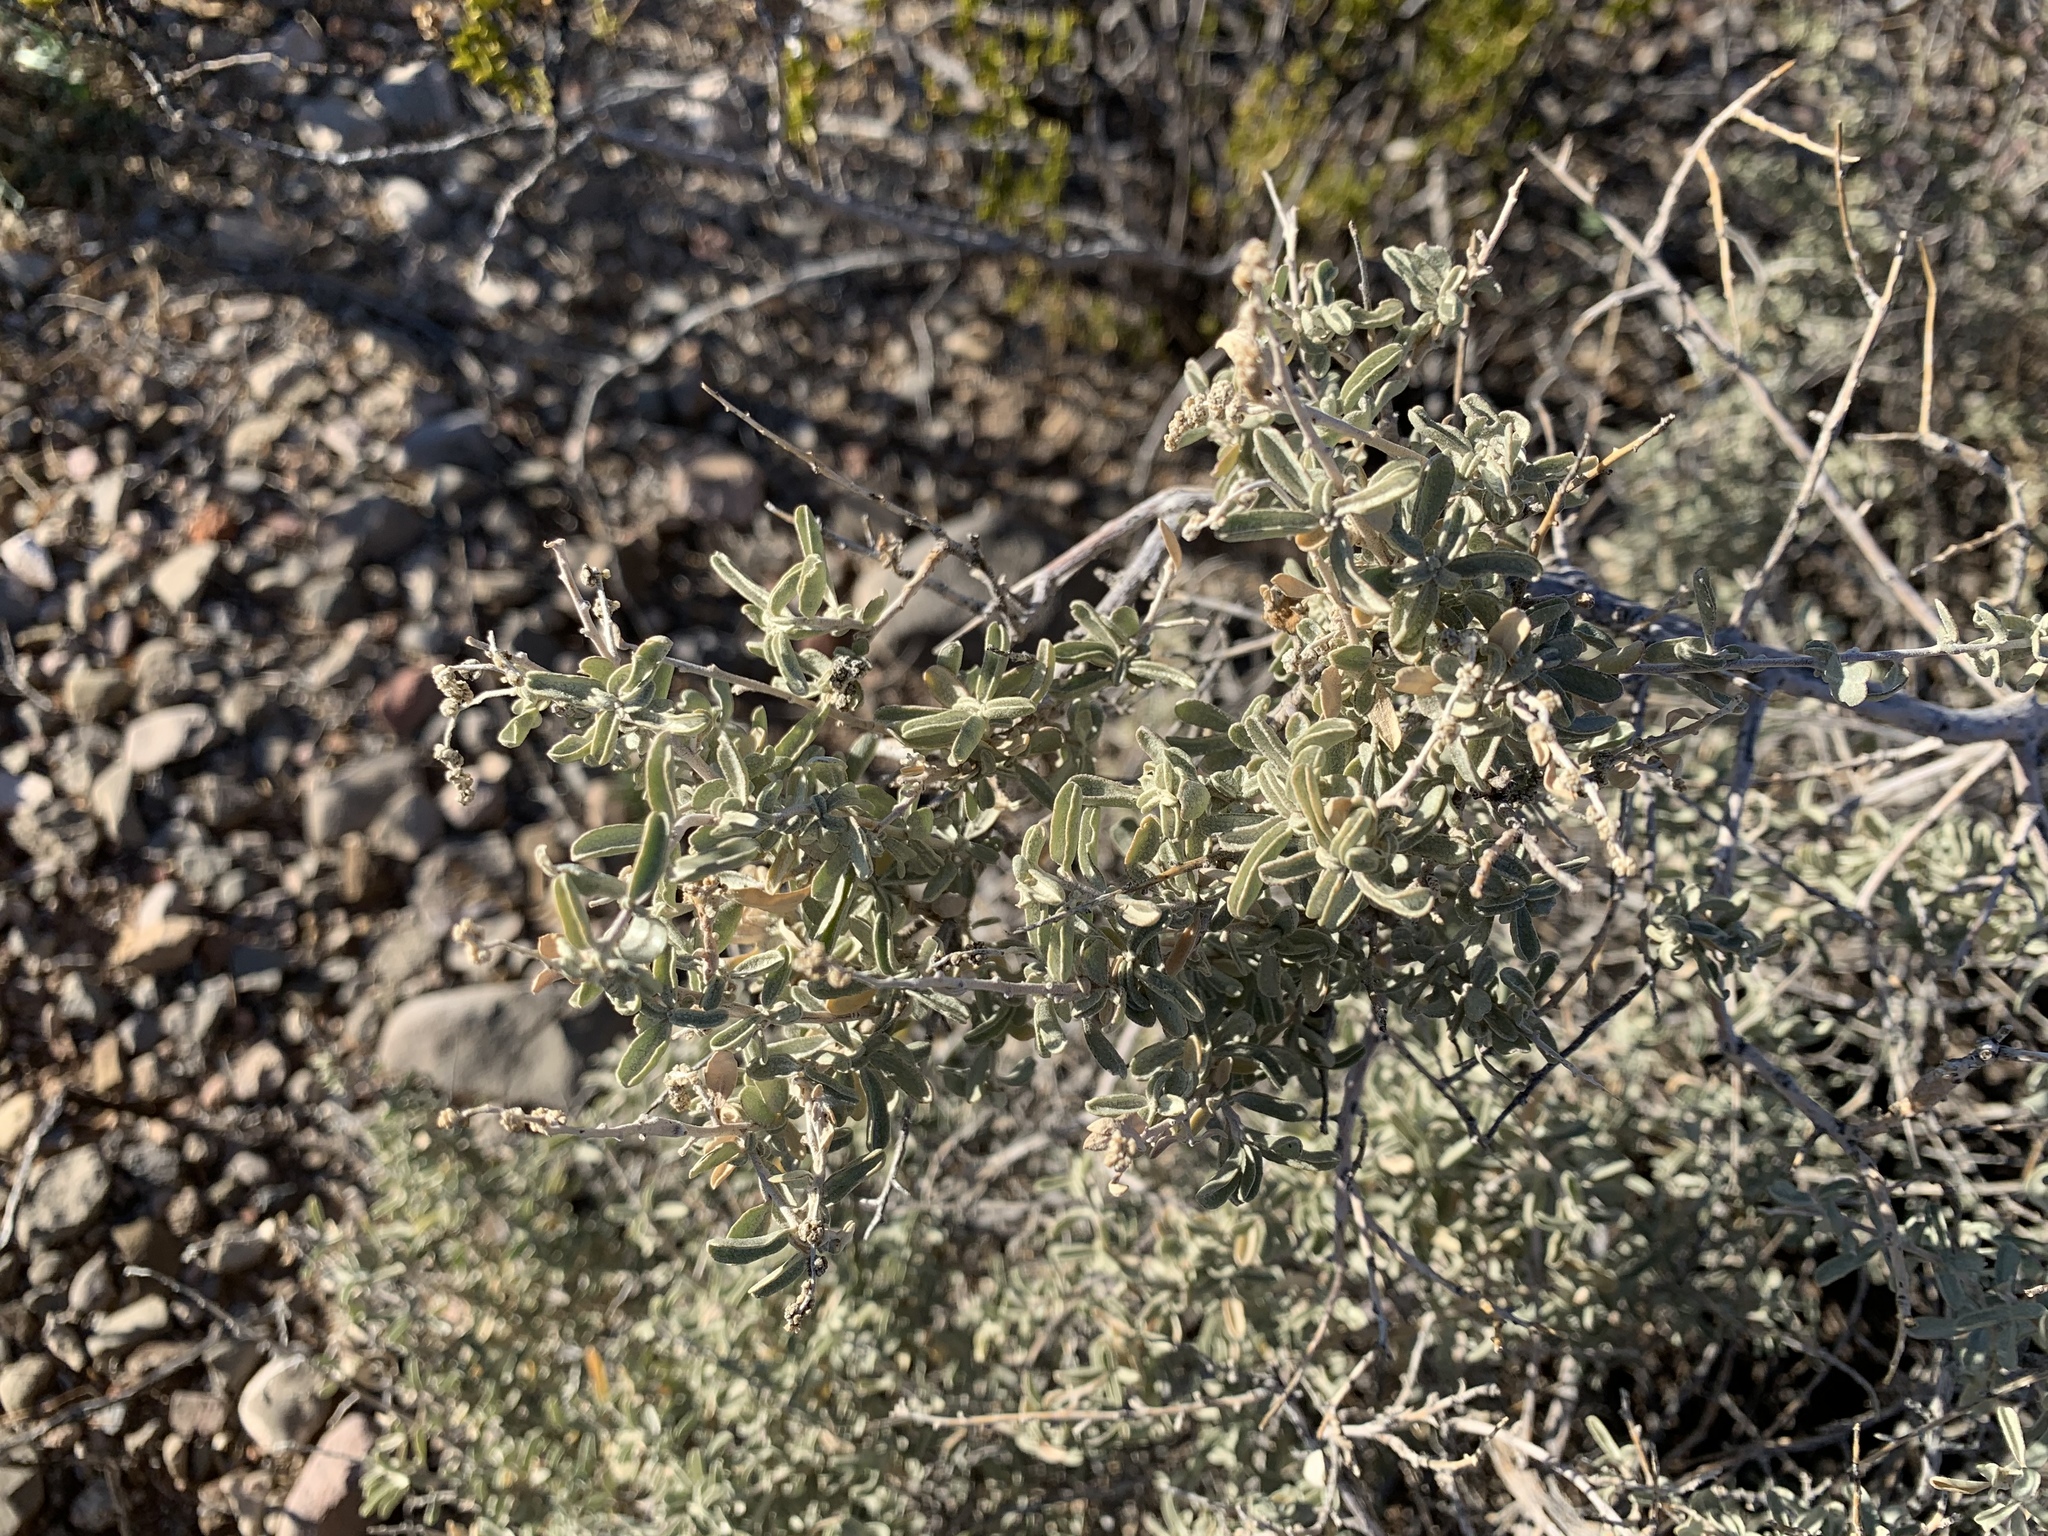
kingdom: Plantae
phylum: Tracheophyta
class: Magnoliopsida
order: Caryophyllales
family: Amaranthaceae
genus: Atriplex
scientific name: Atriplex canescens
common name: Four-wing saltbush
